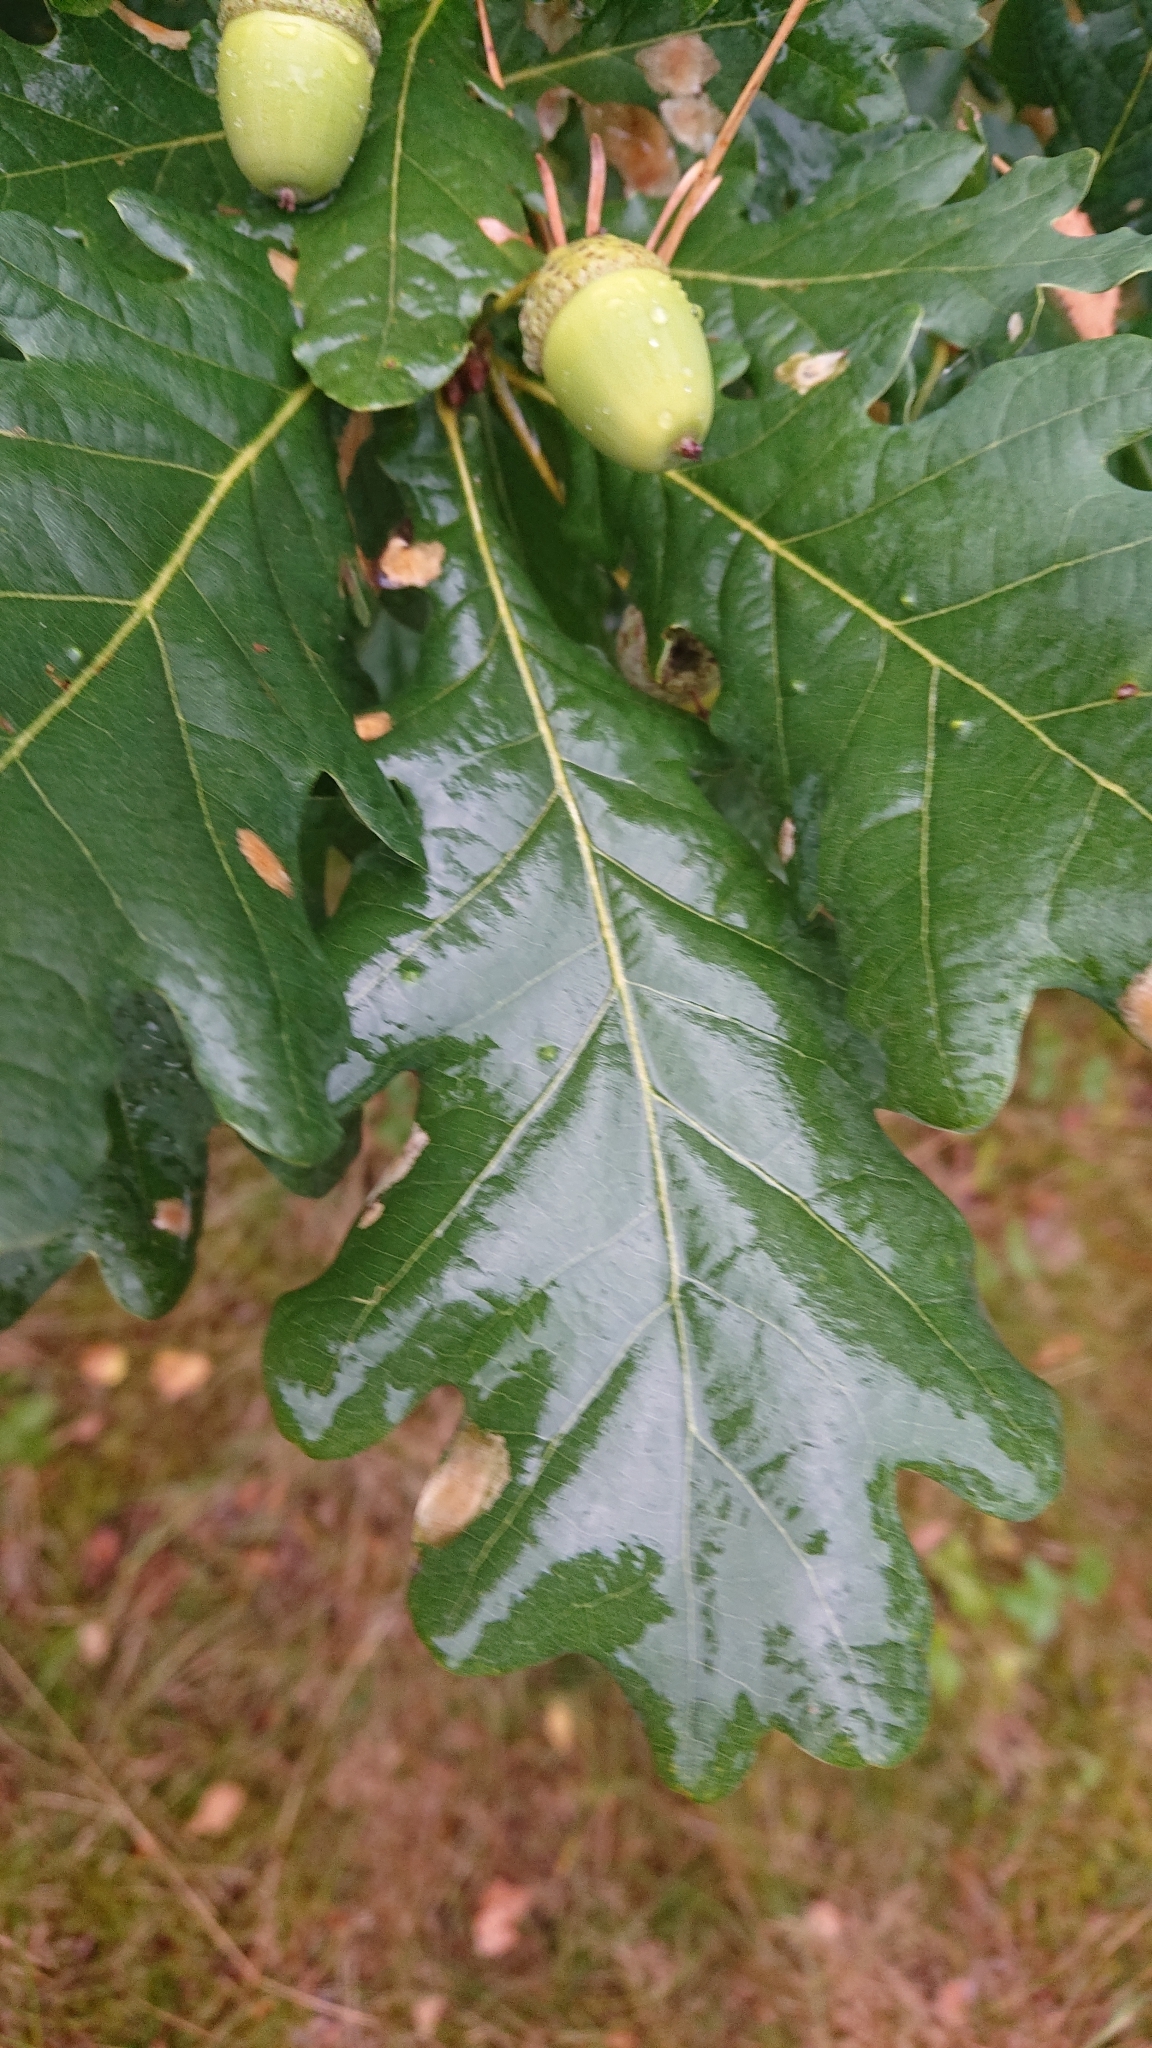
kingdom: Plantae
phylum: Tracheophyta
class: Magnoliopsida
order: Fagales
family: Fagaceae
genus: Quercus
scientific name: Quercus robur
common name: Pedunculate oak
